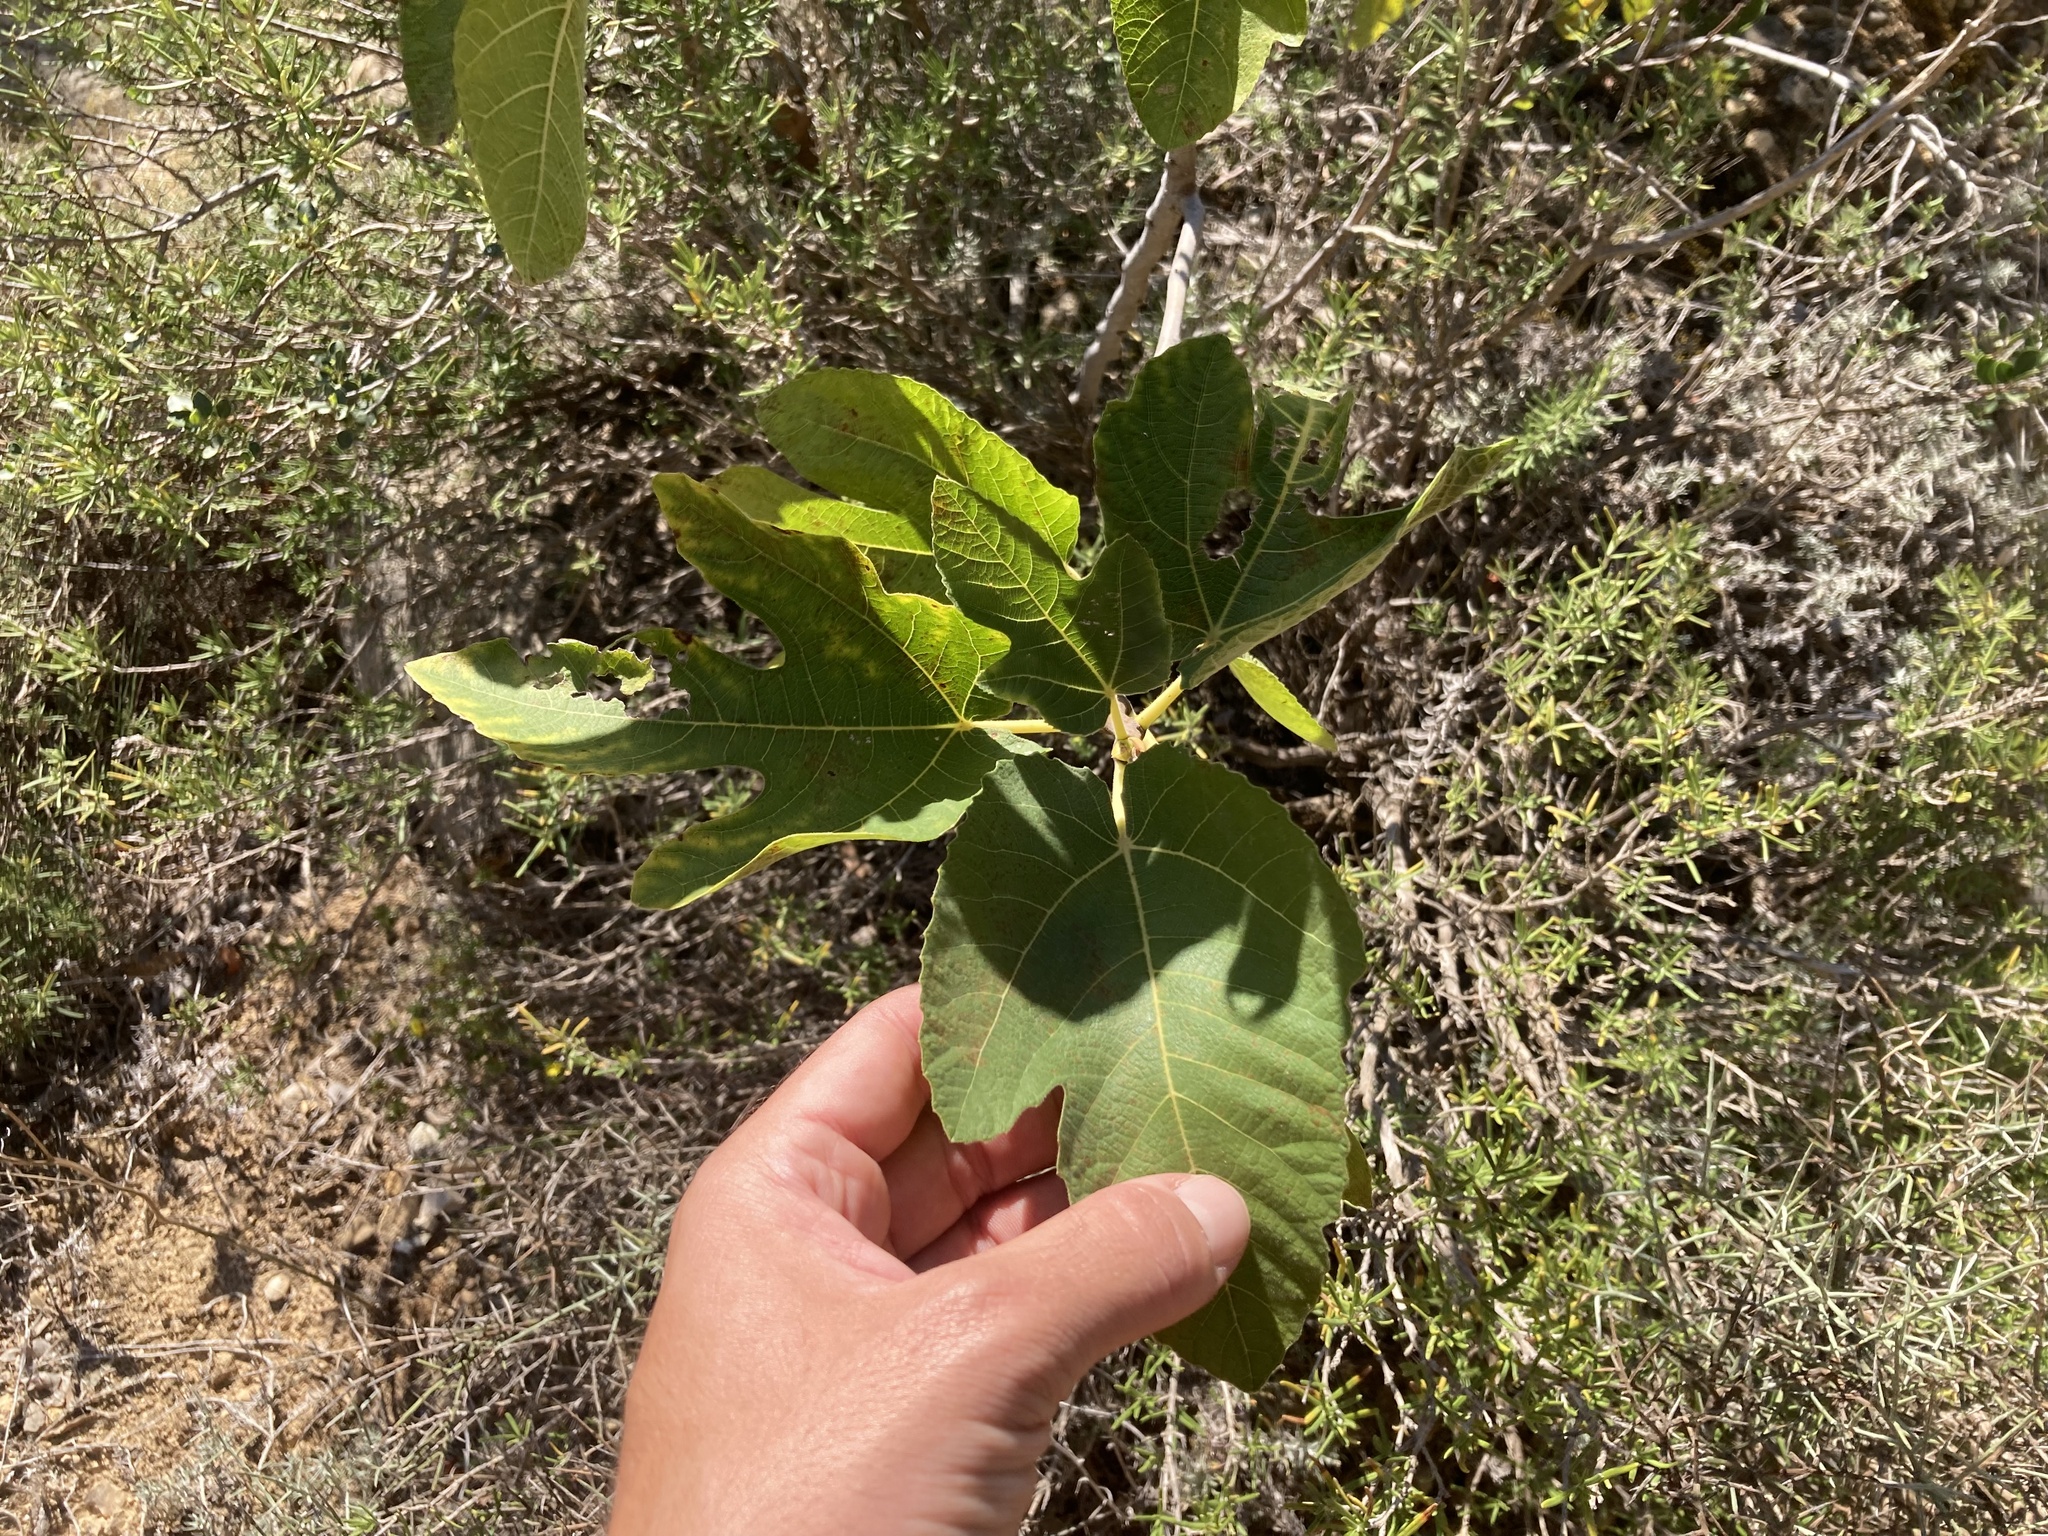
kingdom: Plantae
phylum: Tracheophyta
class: Magnoliopsida
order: Rosales
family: Moraceae
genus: Ficus
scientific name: Ficus carica
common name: Fig
